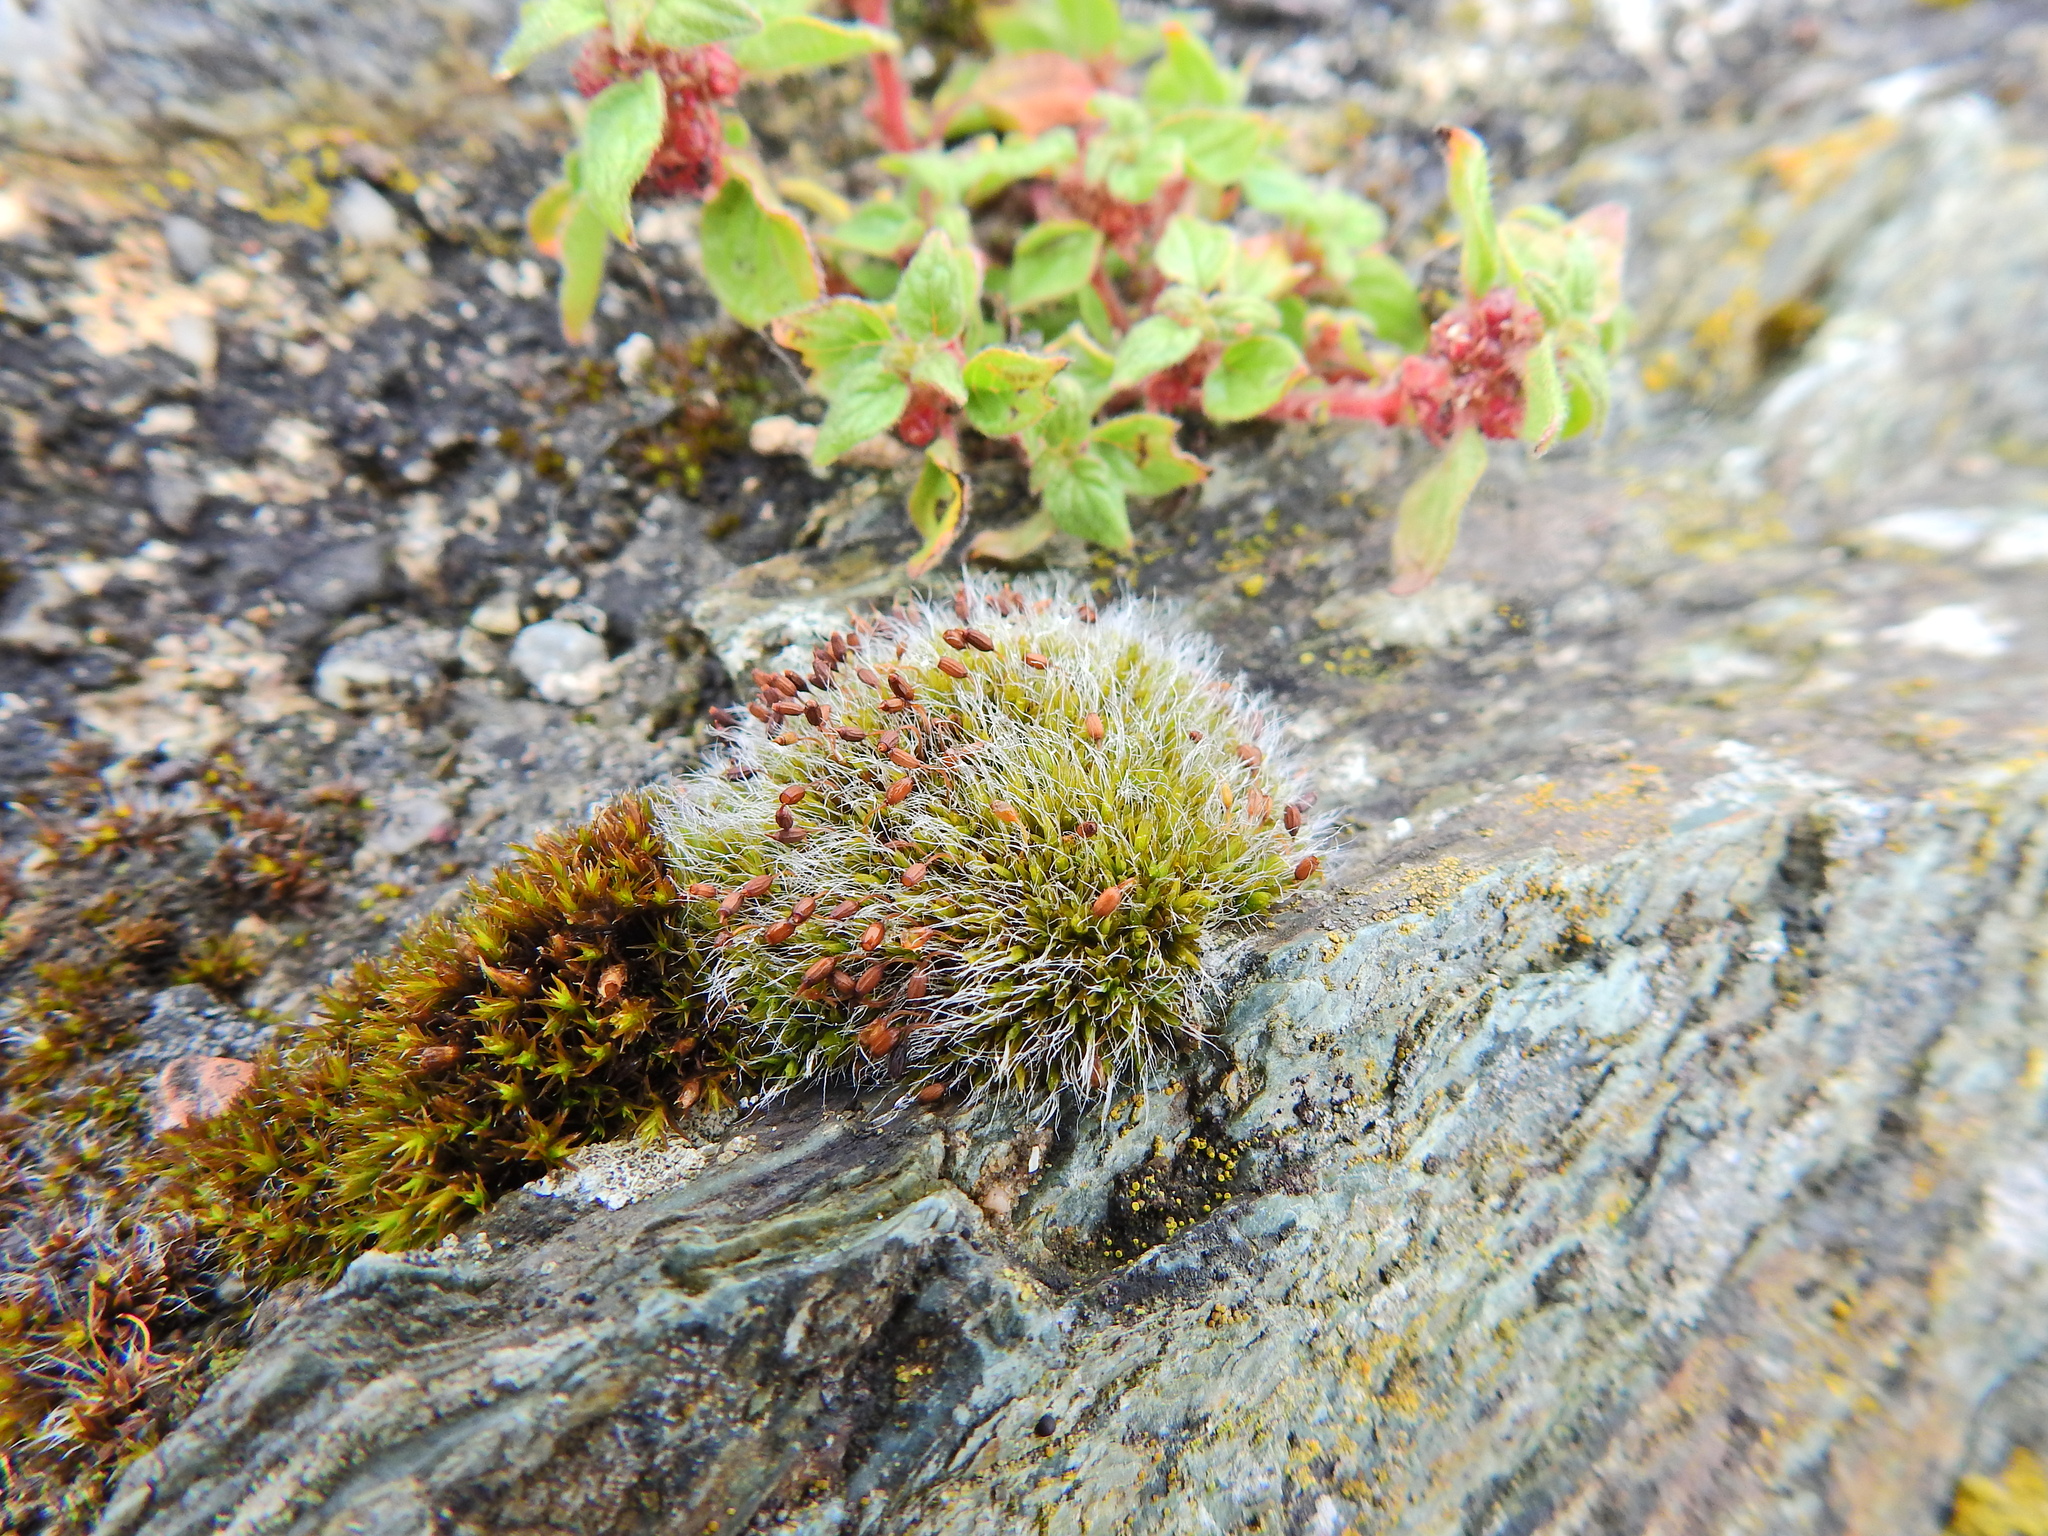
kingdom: Plantae
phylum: Bryophyta
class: Bryopsida
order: Grimmiales
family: Grimmiaceae
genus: Grimmia
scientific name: Grimmia pulvinata
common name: Grey-cushioned grimmia
